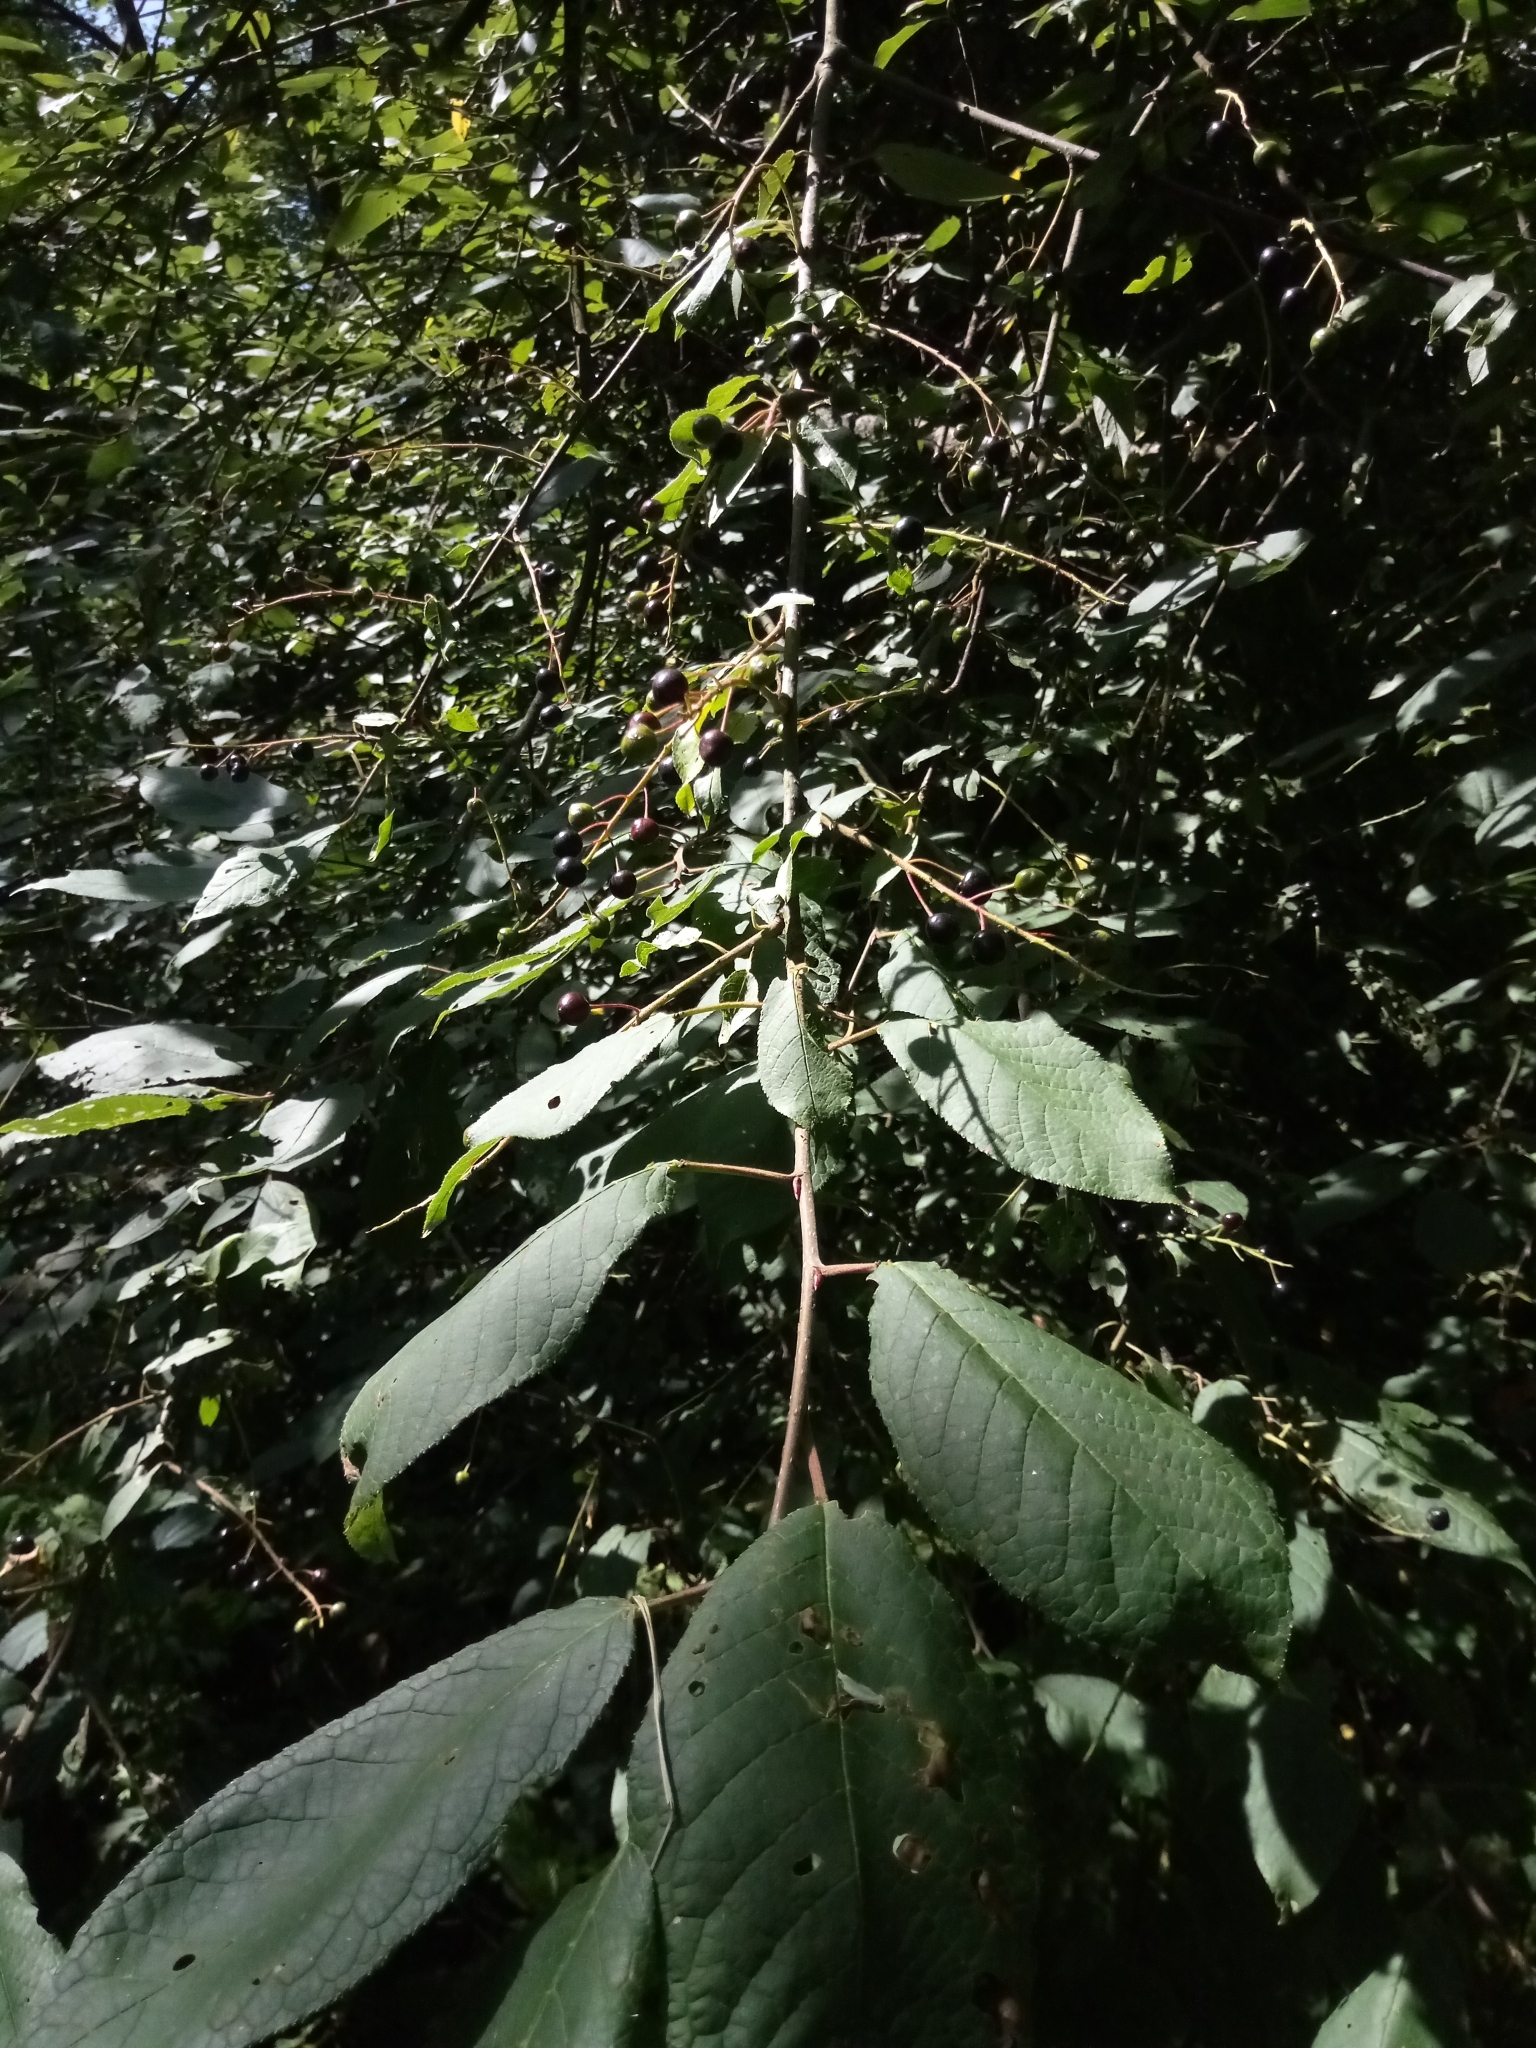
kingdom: Plantae
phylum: Tracheophyta
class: Magnoliopsida
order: Rosales
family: Rosaceae
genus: Prunus
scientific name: Prunus padus
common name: Bird cherry
